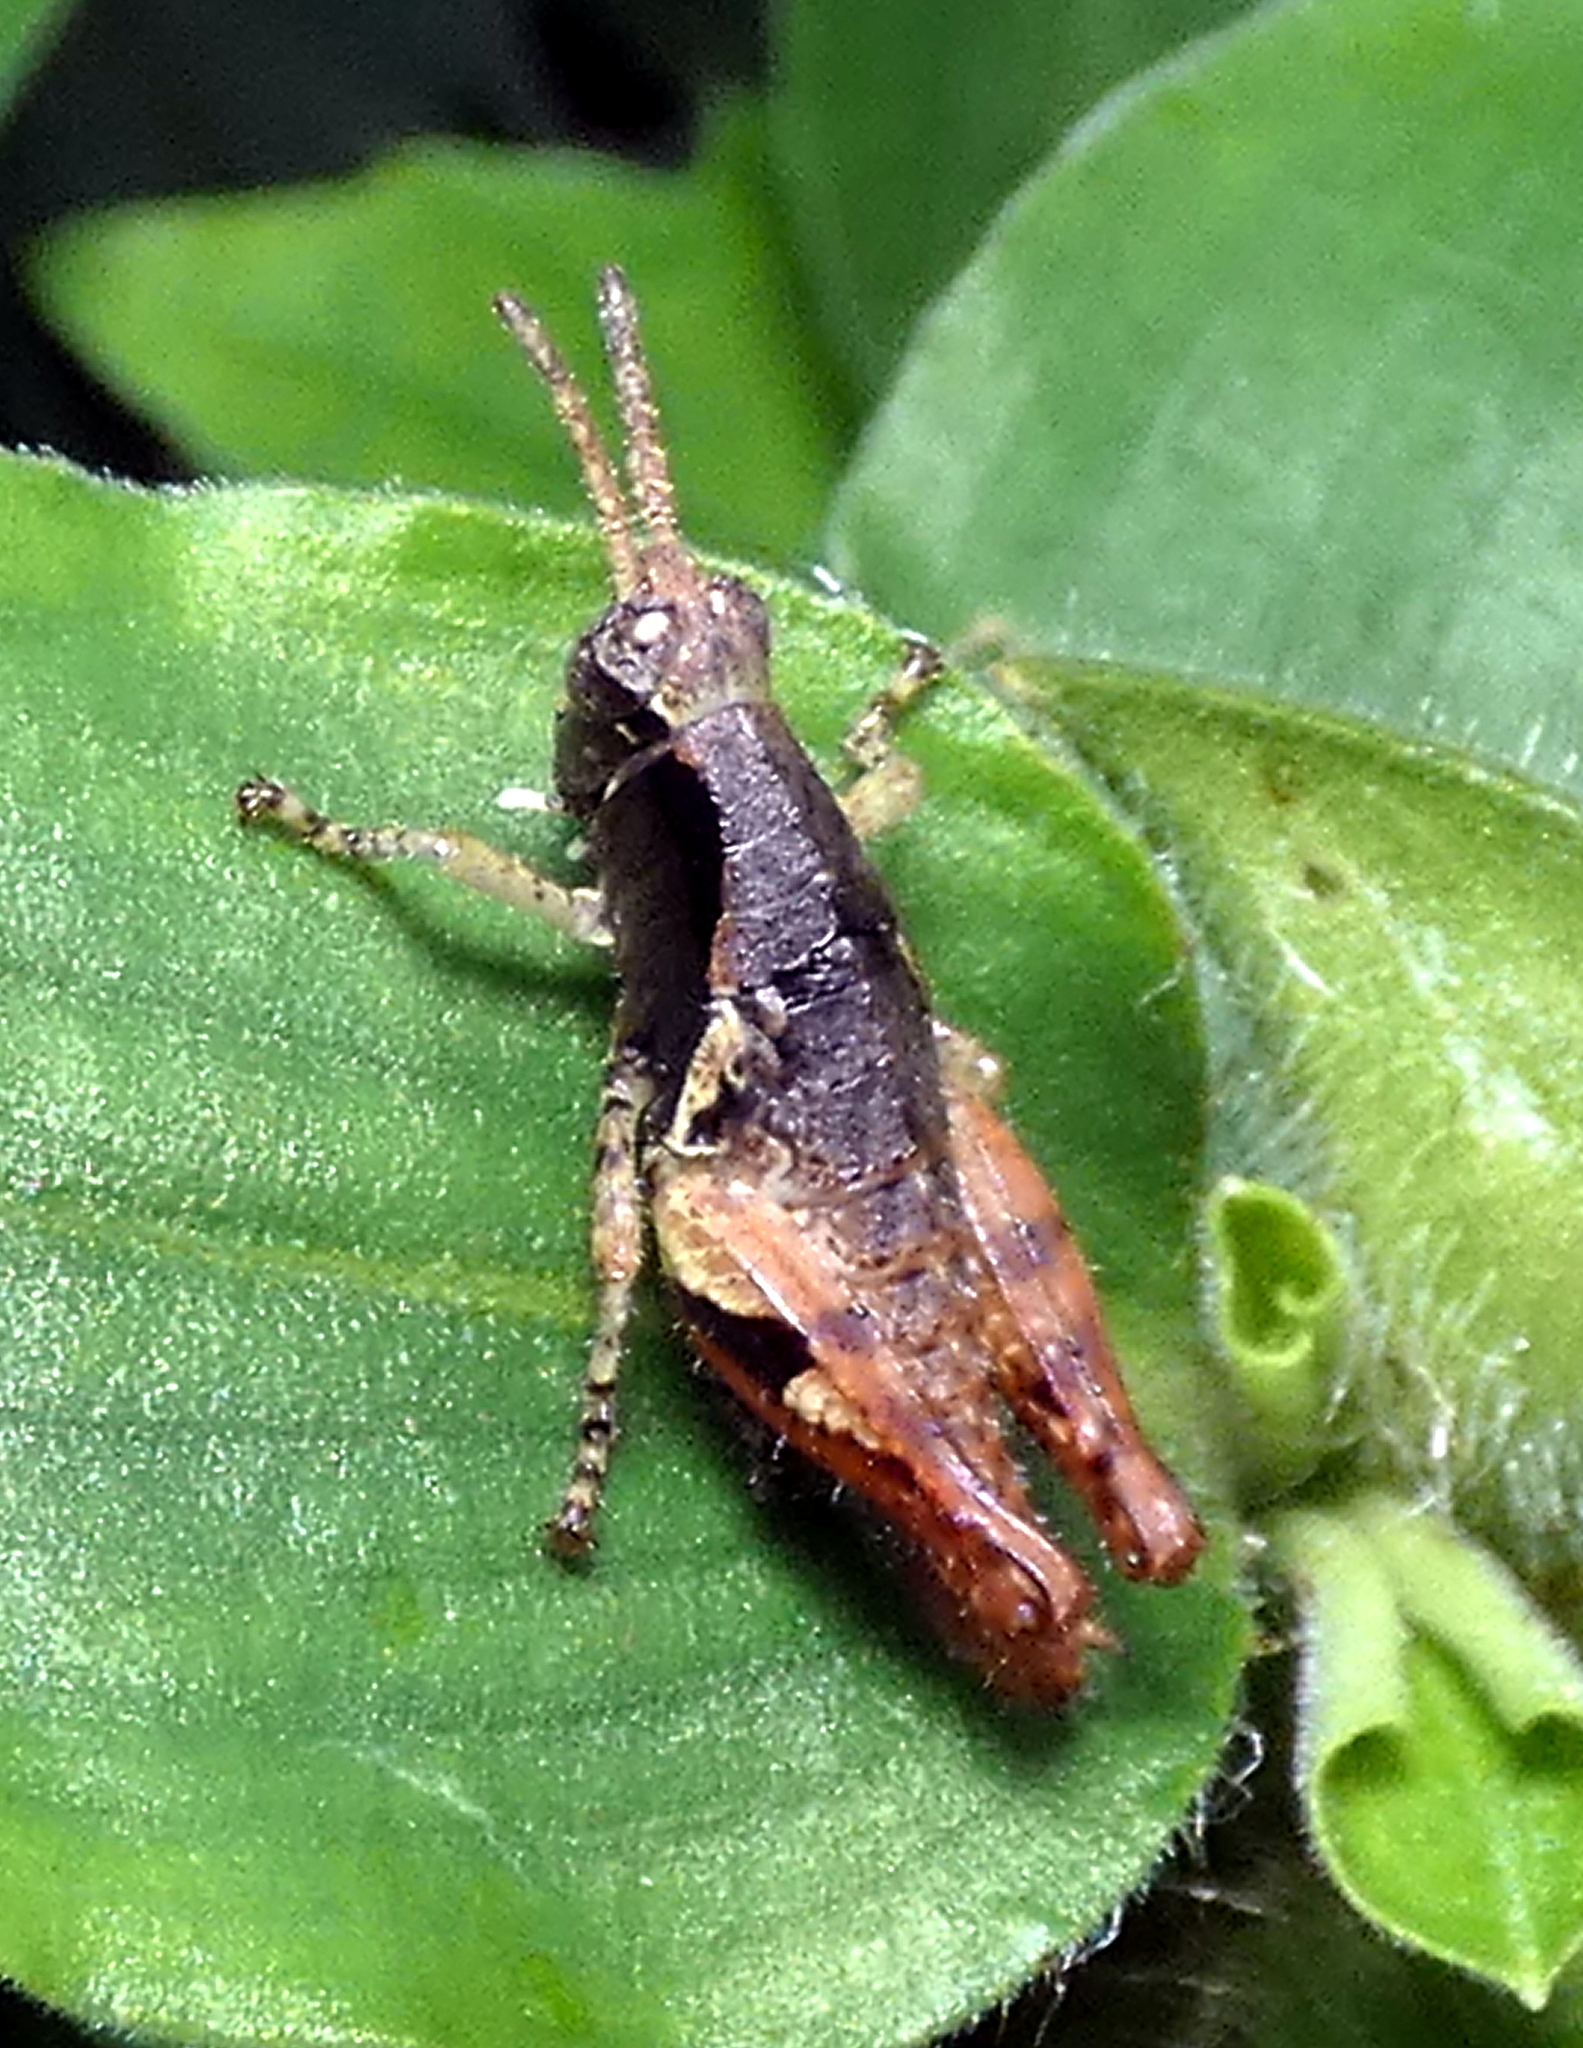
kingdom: Animalia
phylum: Arthropoda
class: Insecta
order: Orthoptera
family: Acrididae
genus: Eujivarus
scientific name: Eujivarus meridionalis
